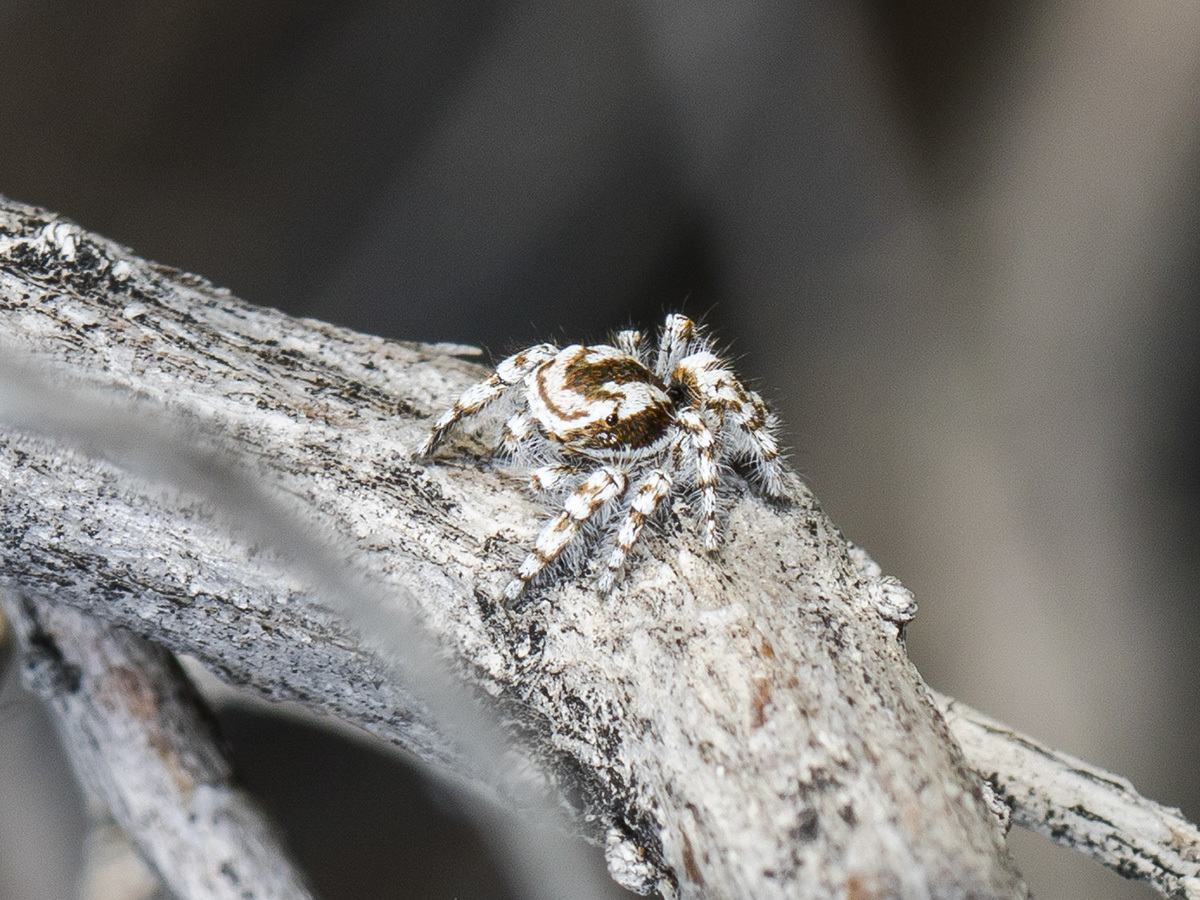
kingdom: Animalia
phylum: Arthropoda
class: Arachnida
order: Araneae
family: Salticidae
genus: Pseudomogrus
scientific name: Pseudomogrus dalaensis
